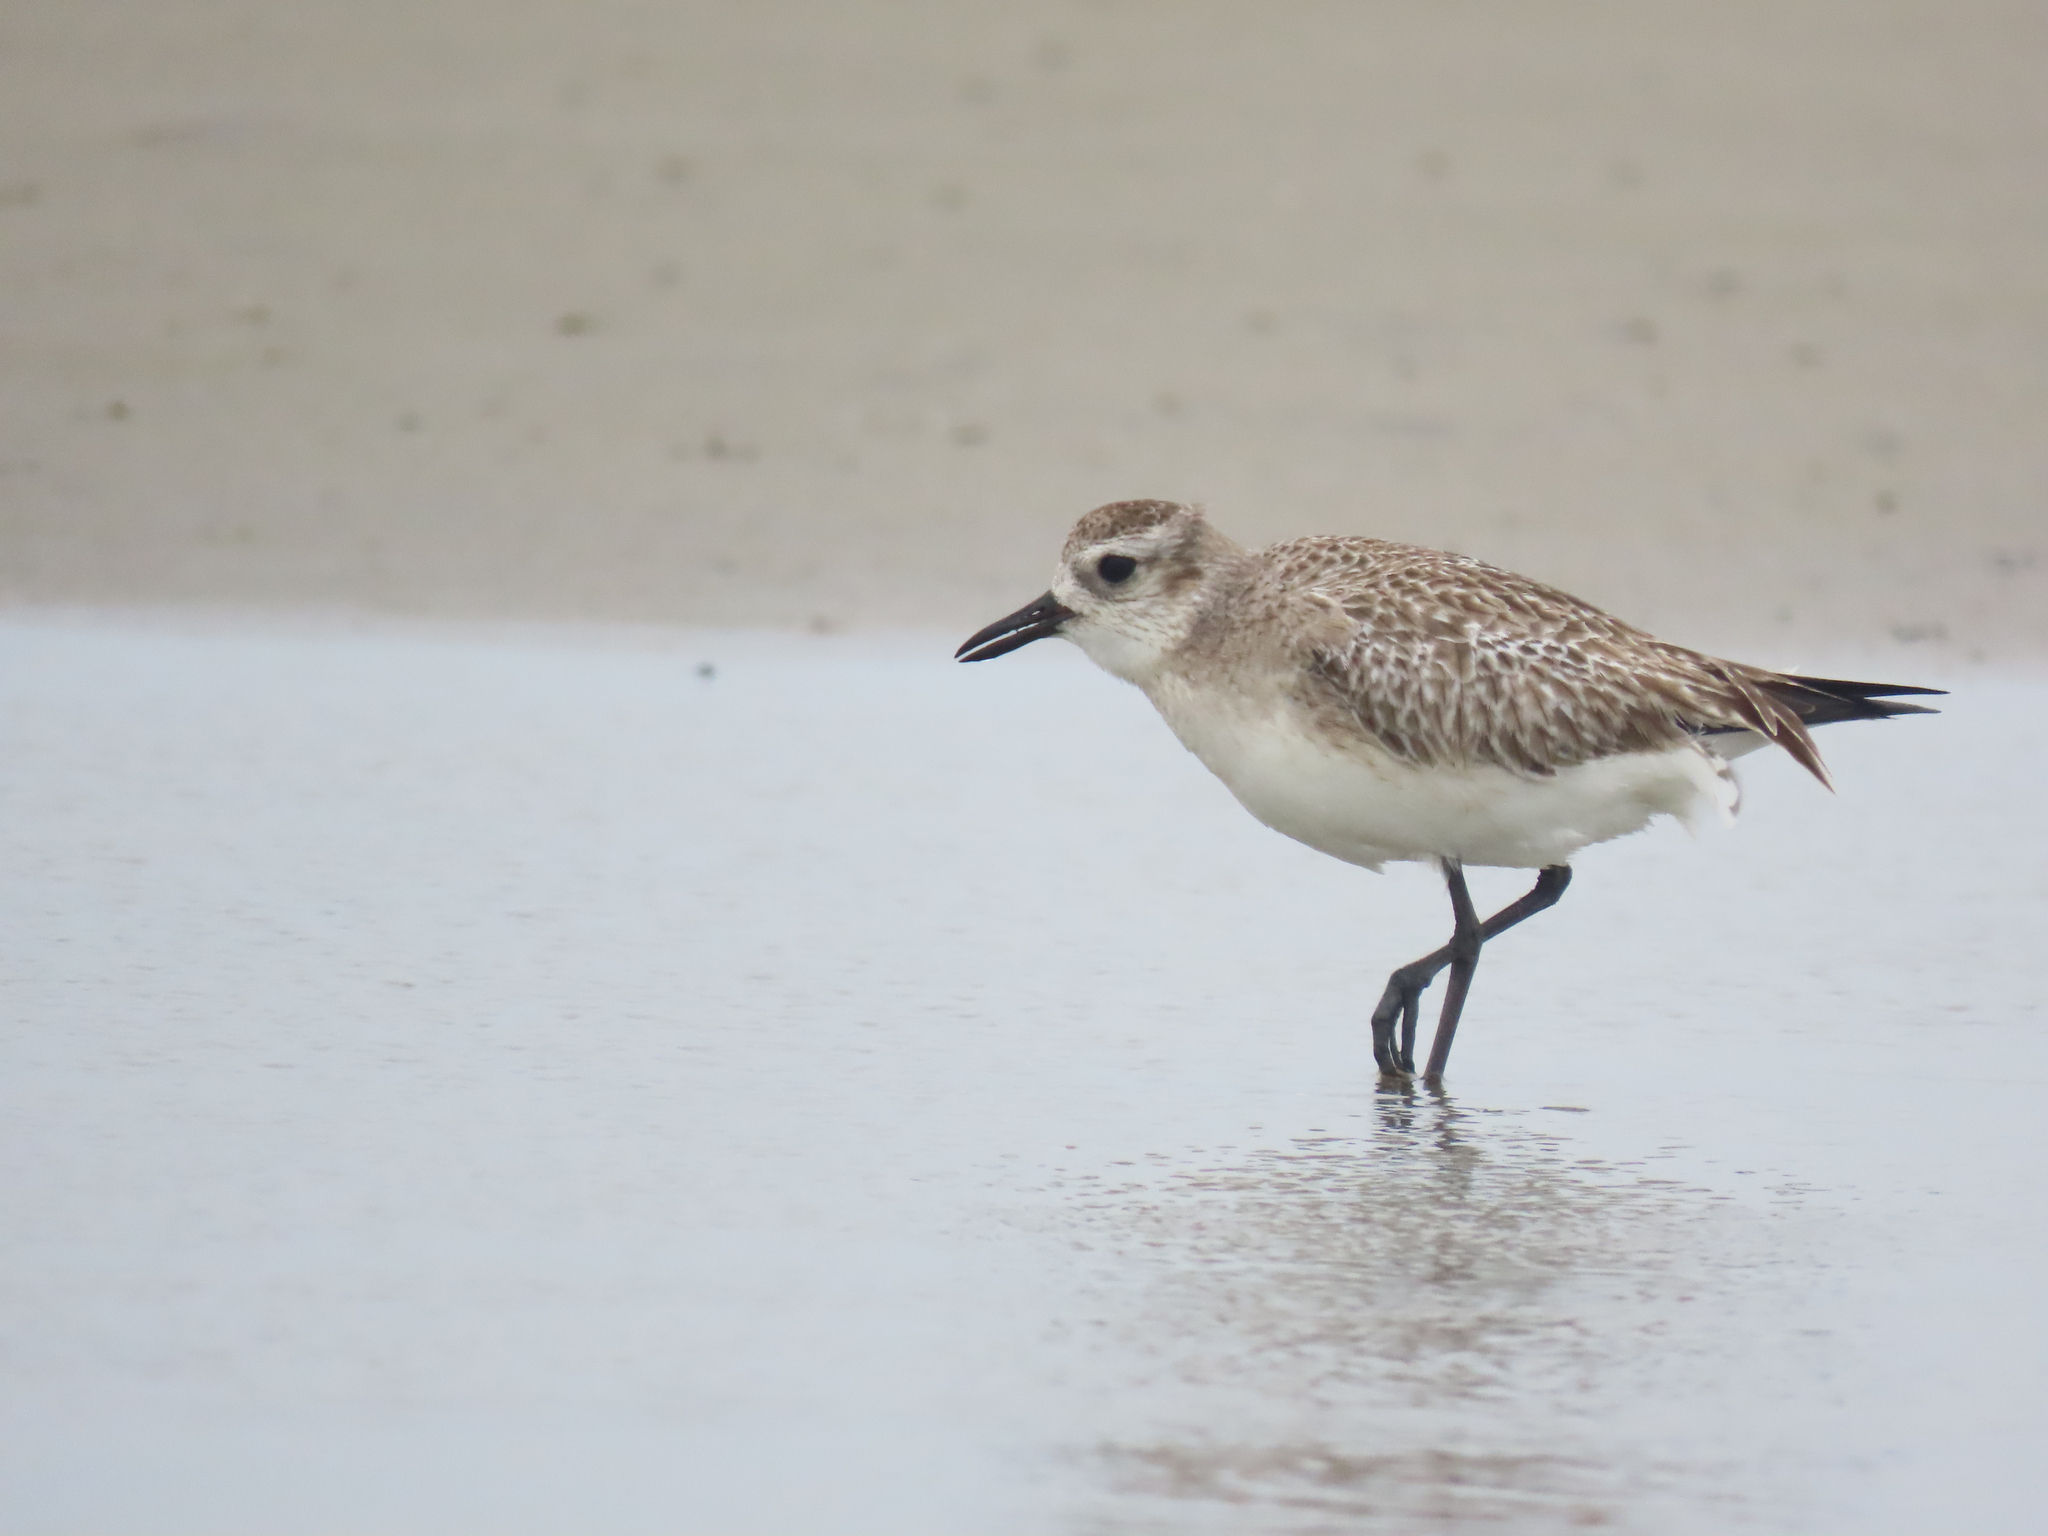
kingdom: Animalia
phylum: Chordata
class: Aves
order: Charadriiformes
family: Charadriidae
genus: Pluvialis
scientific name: Pluvialis squatarola
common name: Grey plover
